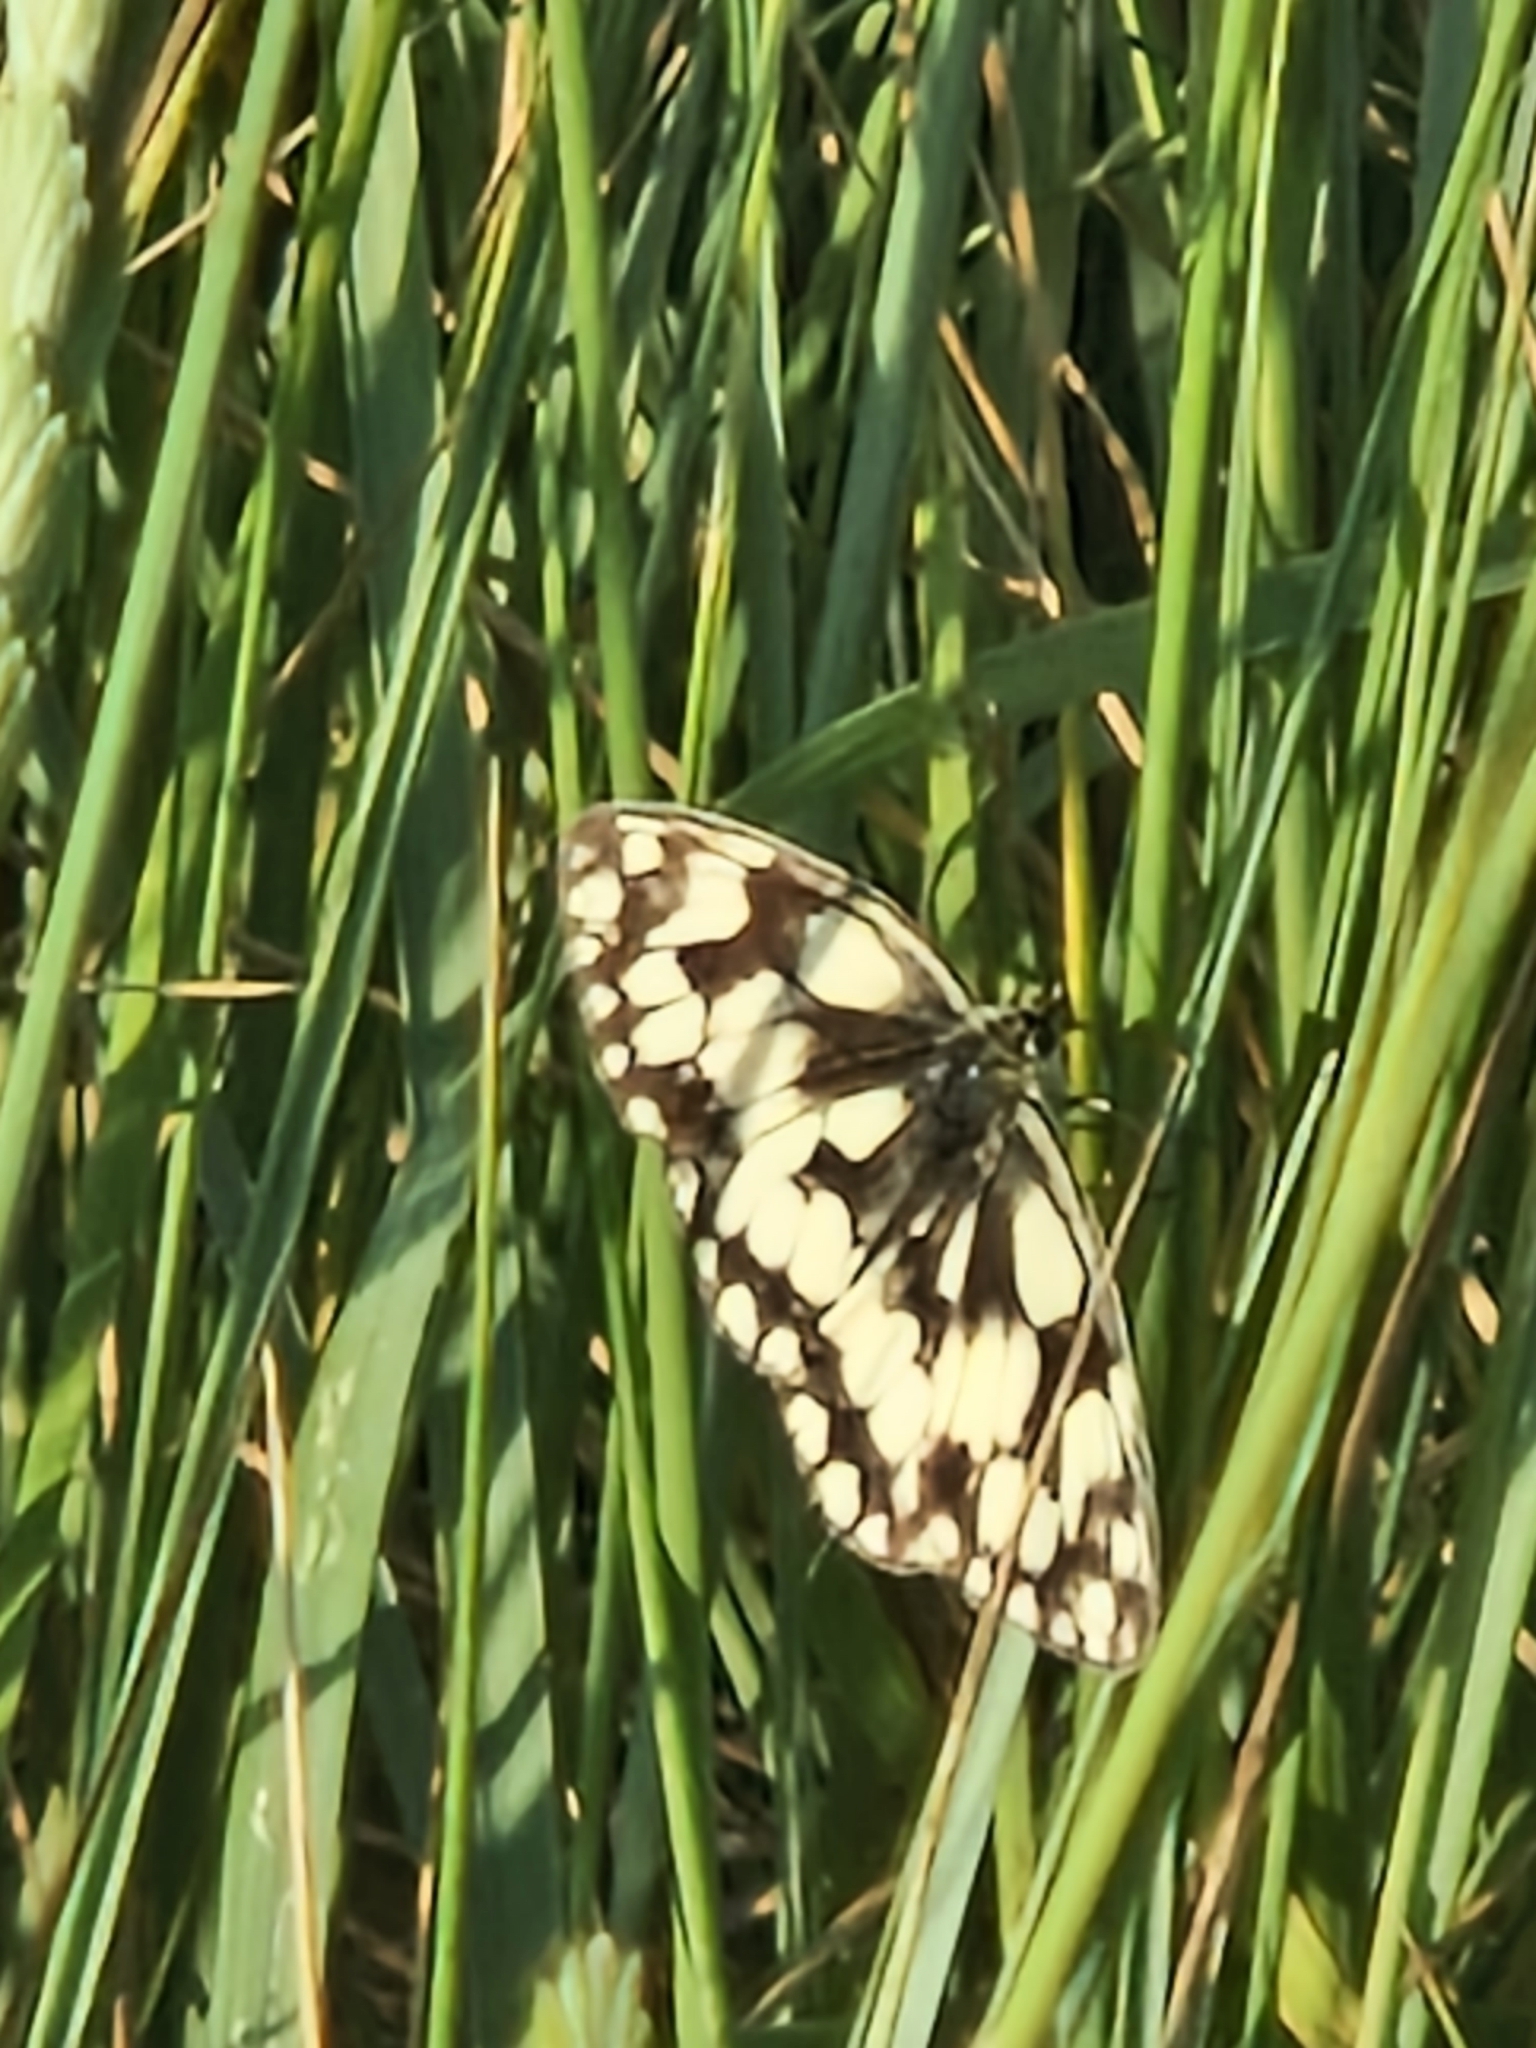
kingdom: Animalia
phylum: Arthropoda
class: Insecta
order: Lepidoptera
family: Nymphalidae
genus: Melanargia
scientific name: Melanargia galathea
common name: Marbled white
